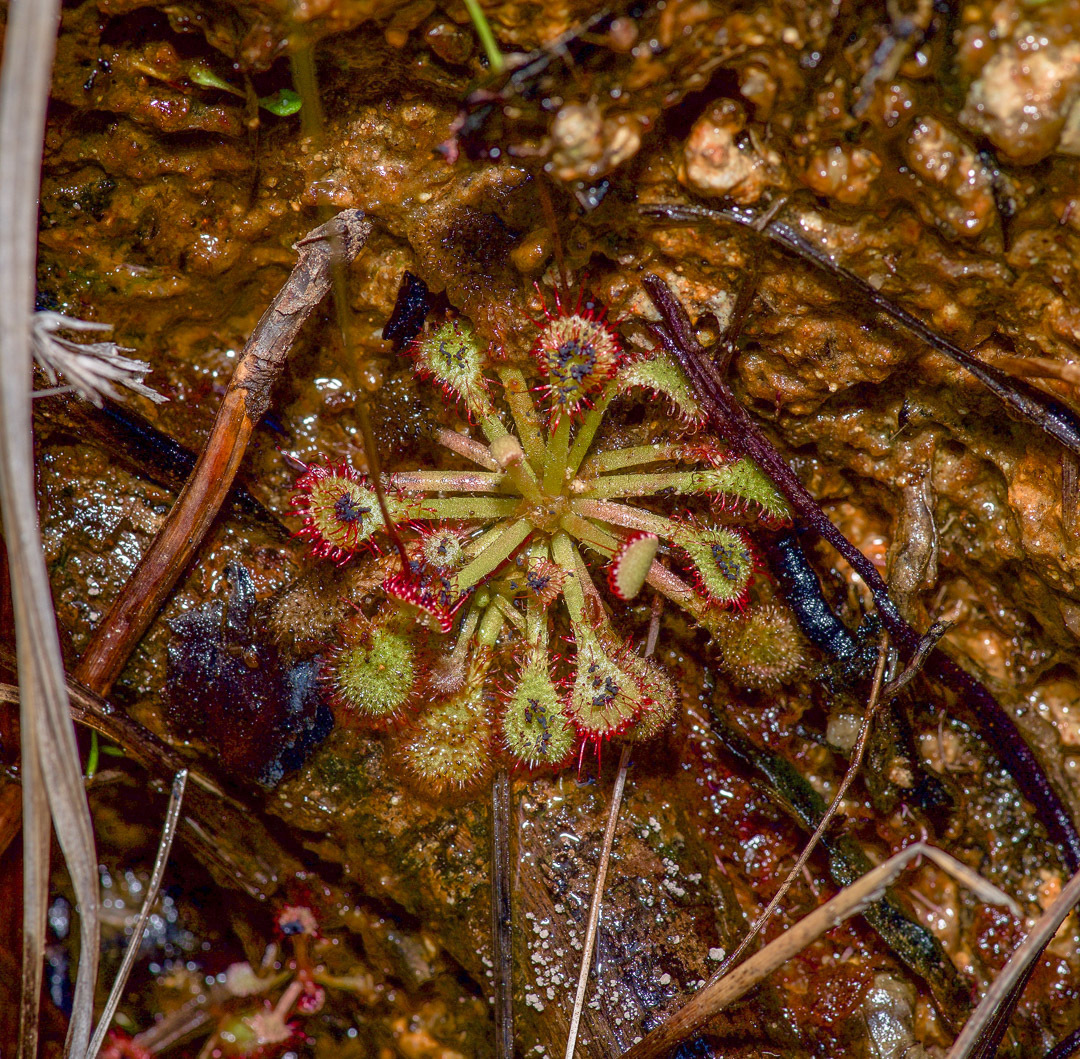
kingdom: Plantae
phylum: Tracheophyta
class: Magnoliopsida
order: Caryophyllales
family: Droseraceae
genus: Drosera
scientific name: Drosera capillaris
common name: Pink sundew
